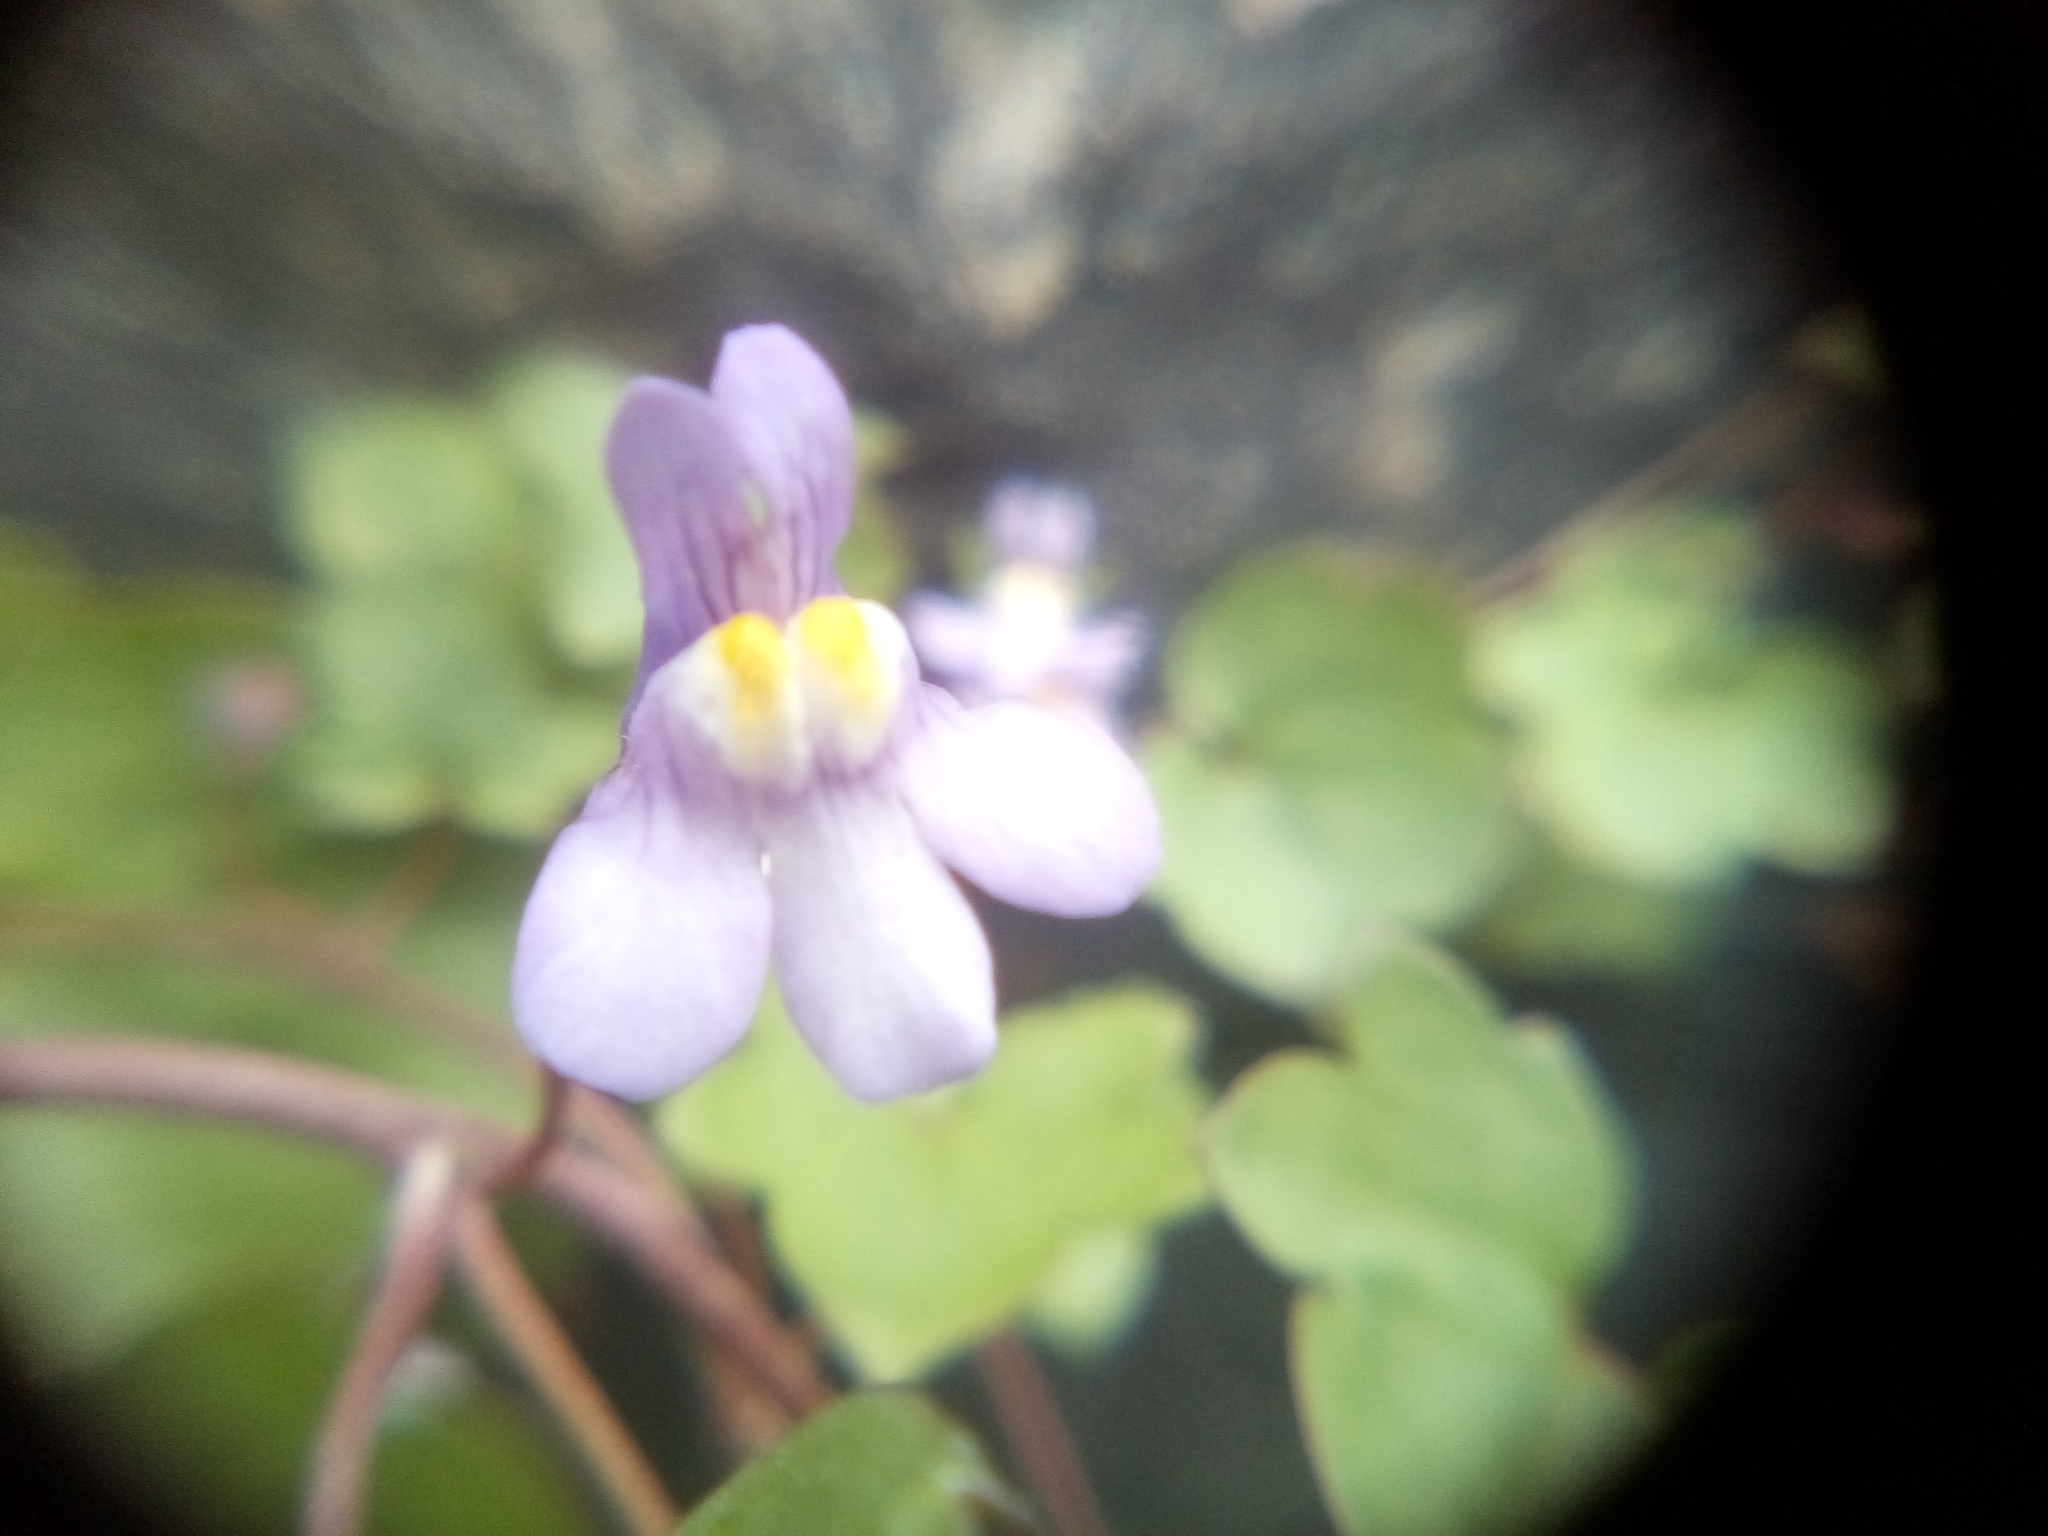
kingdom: Plantae
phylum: Tracheophyta
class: Magnoliopsida
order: Lamiales
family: Plantaginaceae
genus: Cymbalaria
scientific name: Cymbalaria muralis
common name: Ivy-leaved toadflax
